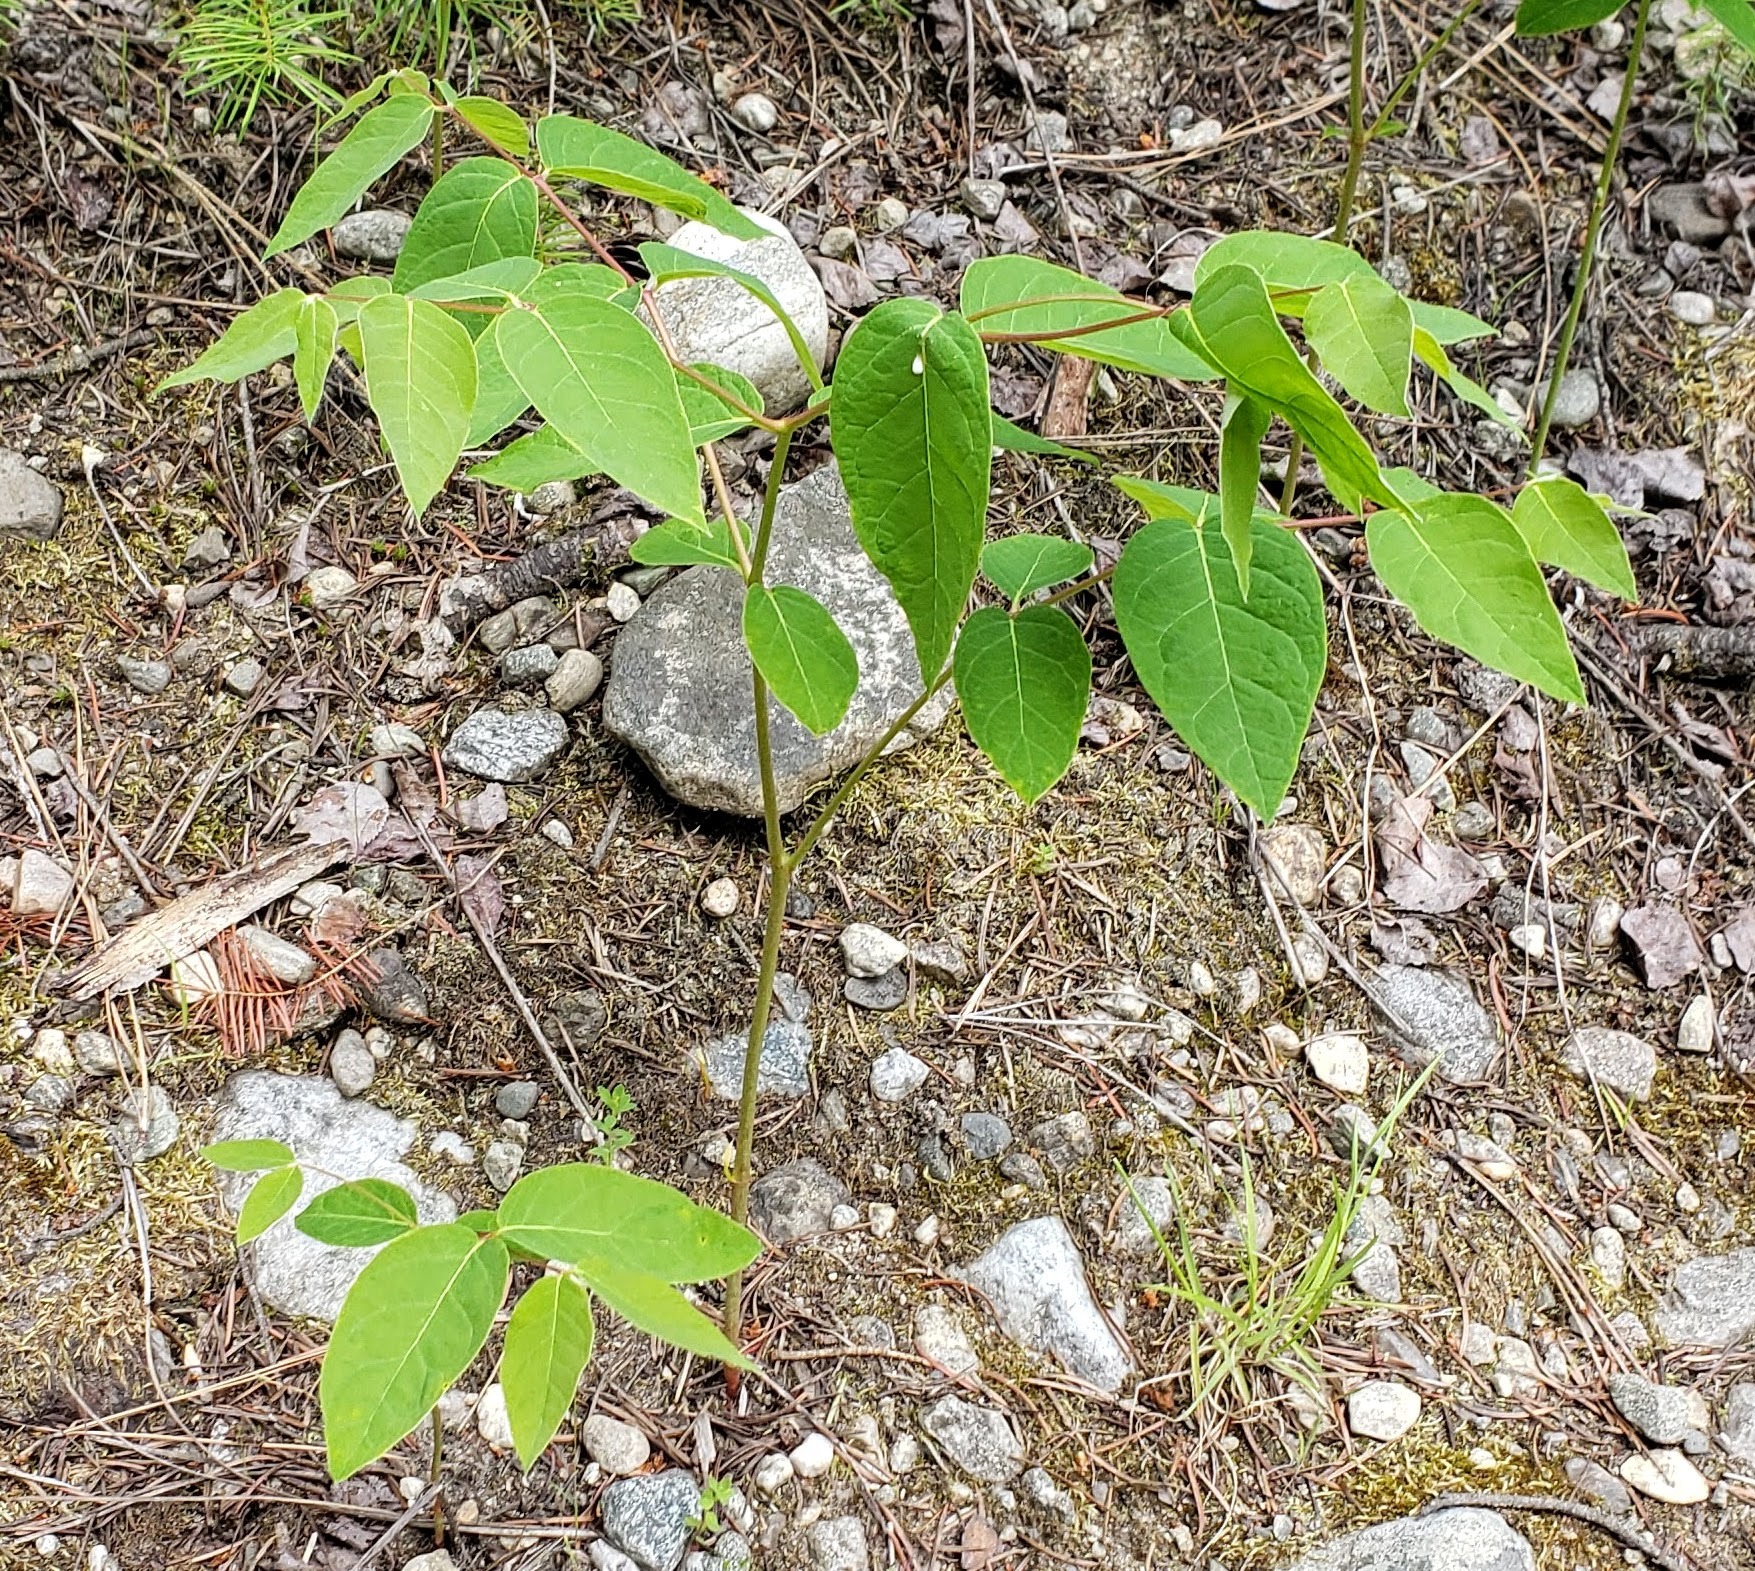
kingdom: Plantae
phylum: Tracheophyta
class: Magnoliopsida
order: Gentianales
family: Apocynaceae
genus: Apocynum
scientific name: Apocynum androsaemifolium
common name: Spreading dogbane
